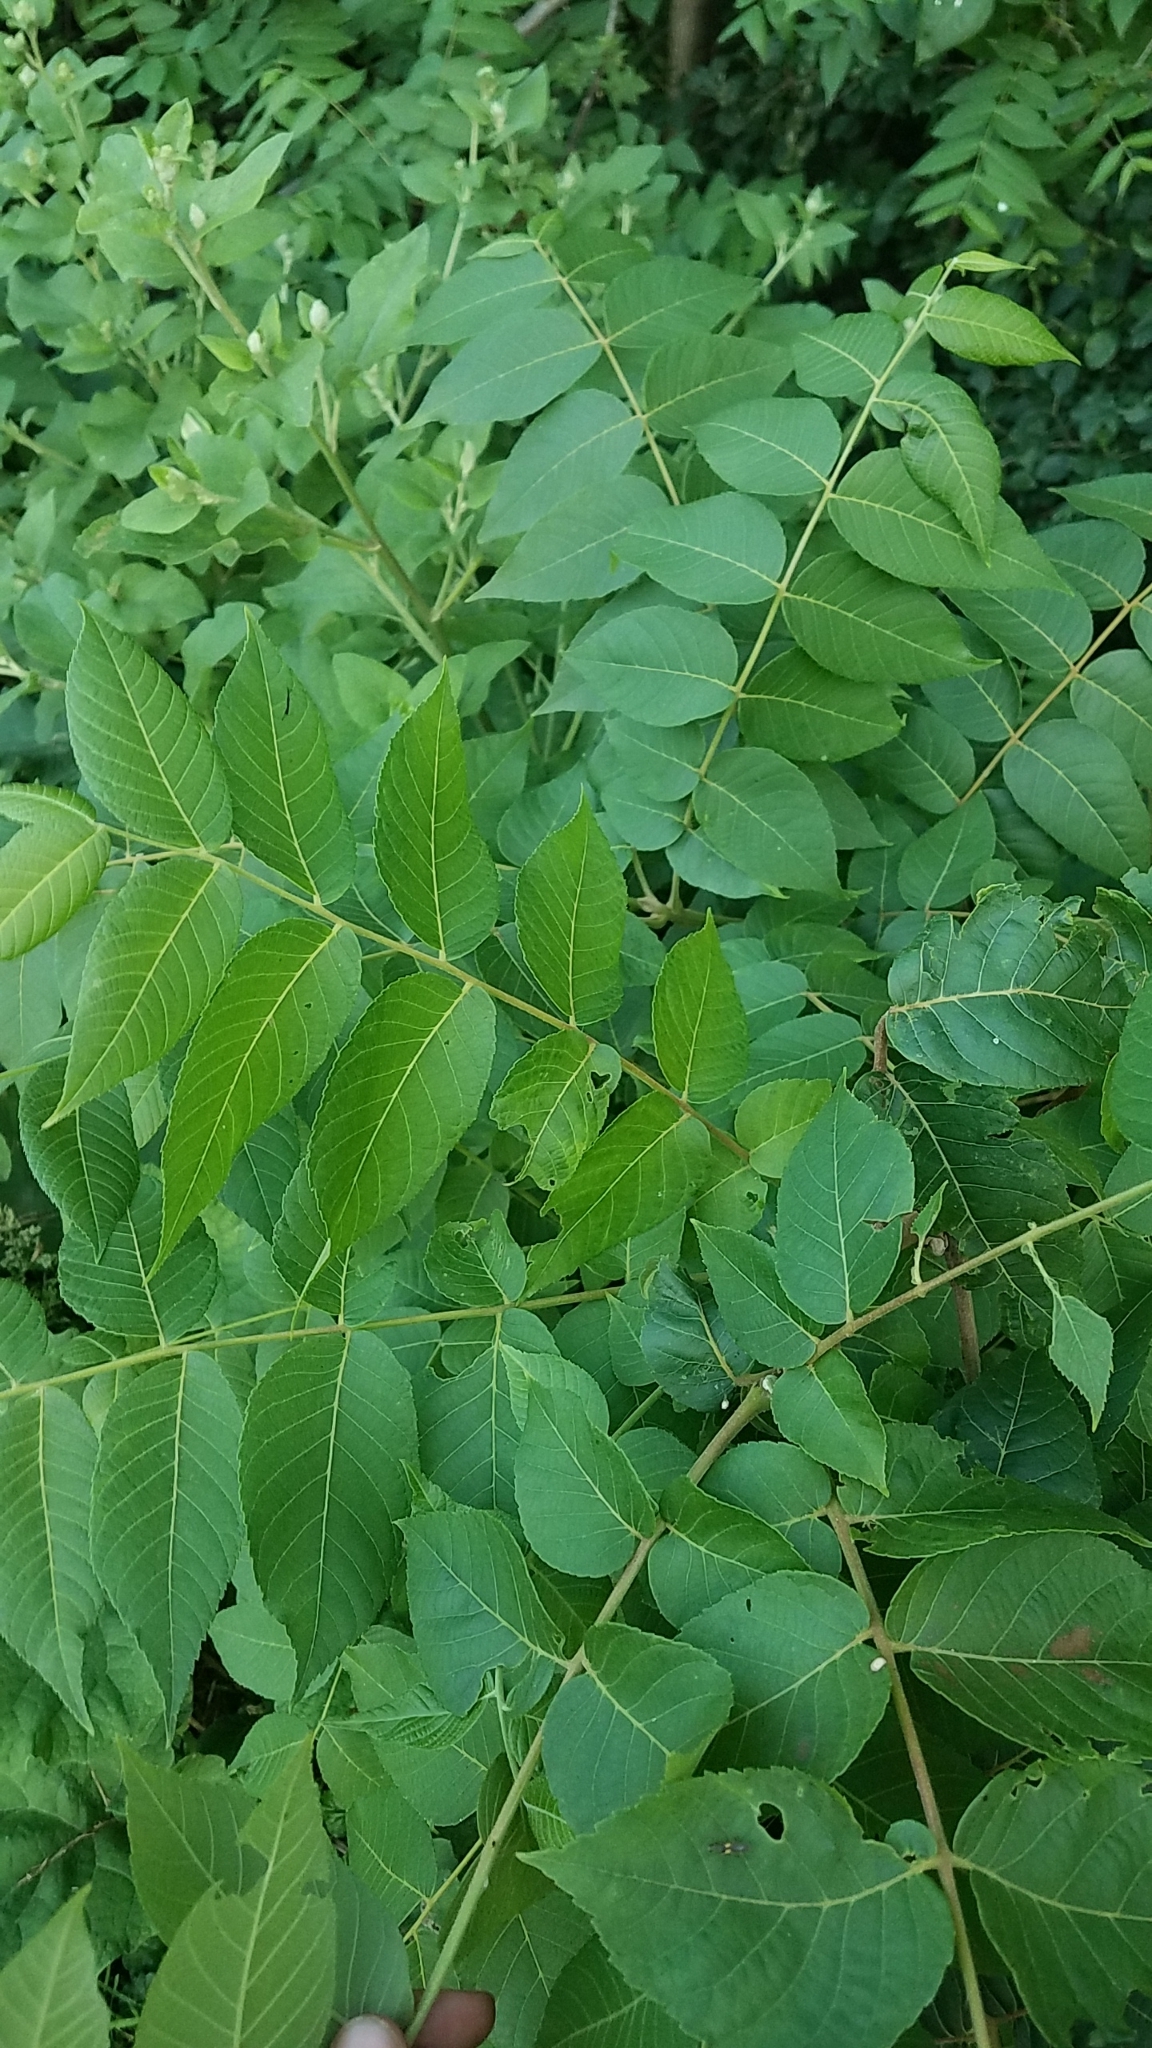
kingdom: Plantae
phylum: Tracheophyta
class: Magnoliopsida
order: Fagales
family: Juglandaceae
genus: Juglans
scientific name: Juglans nigra
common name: Black walnut
